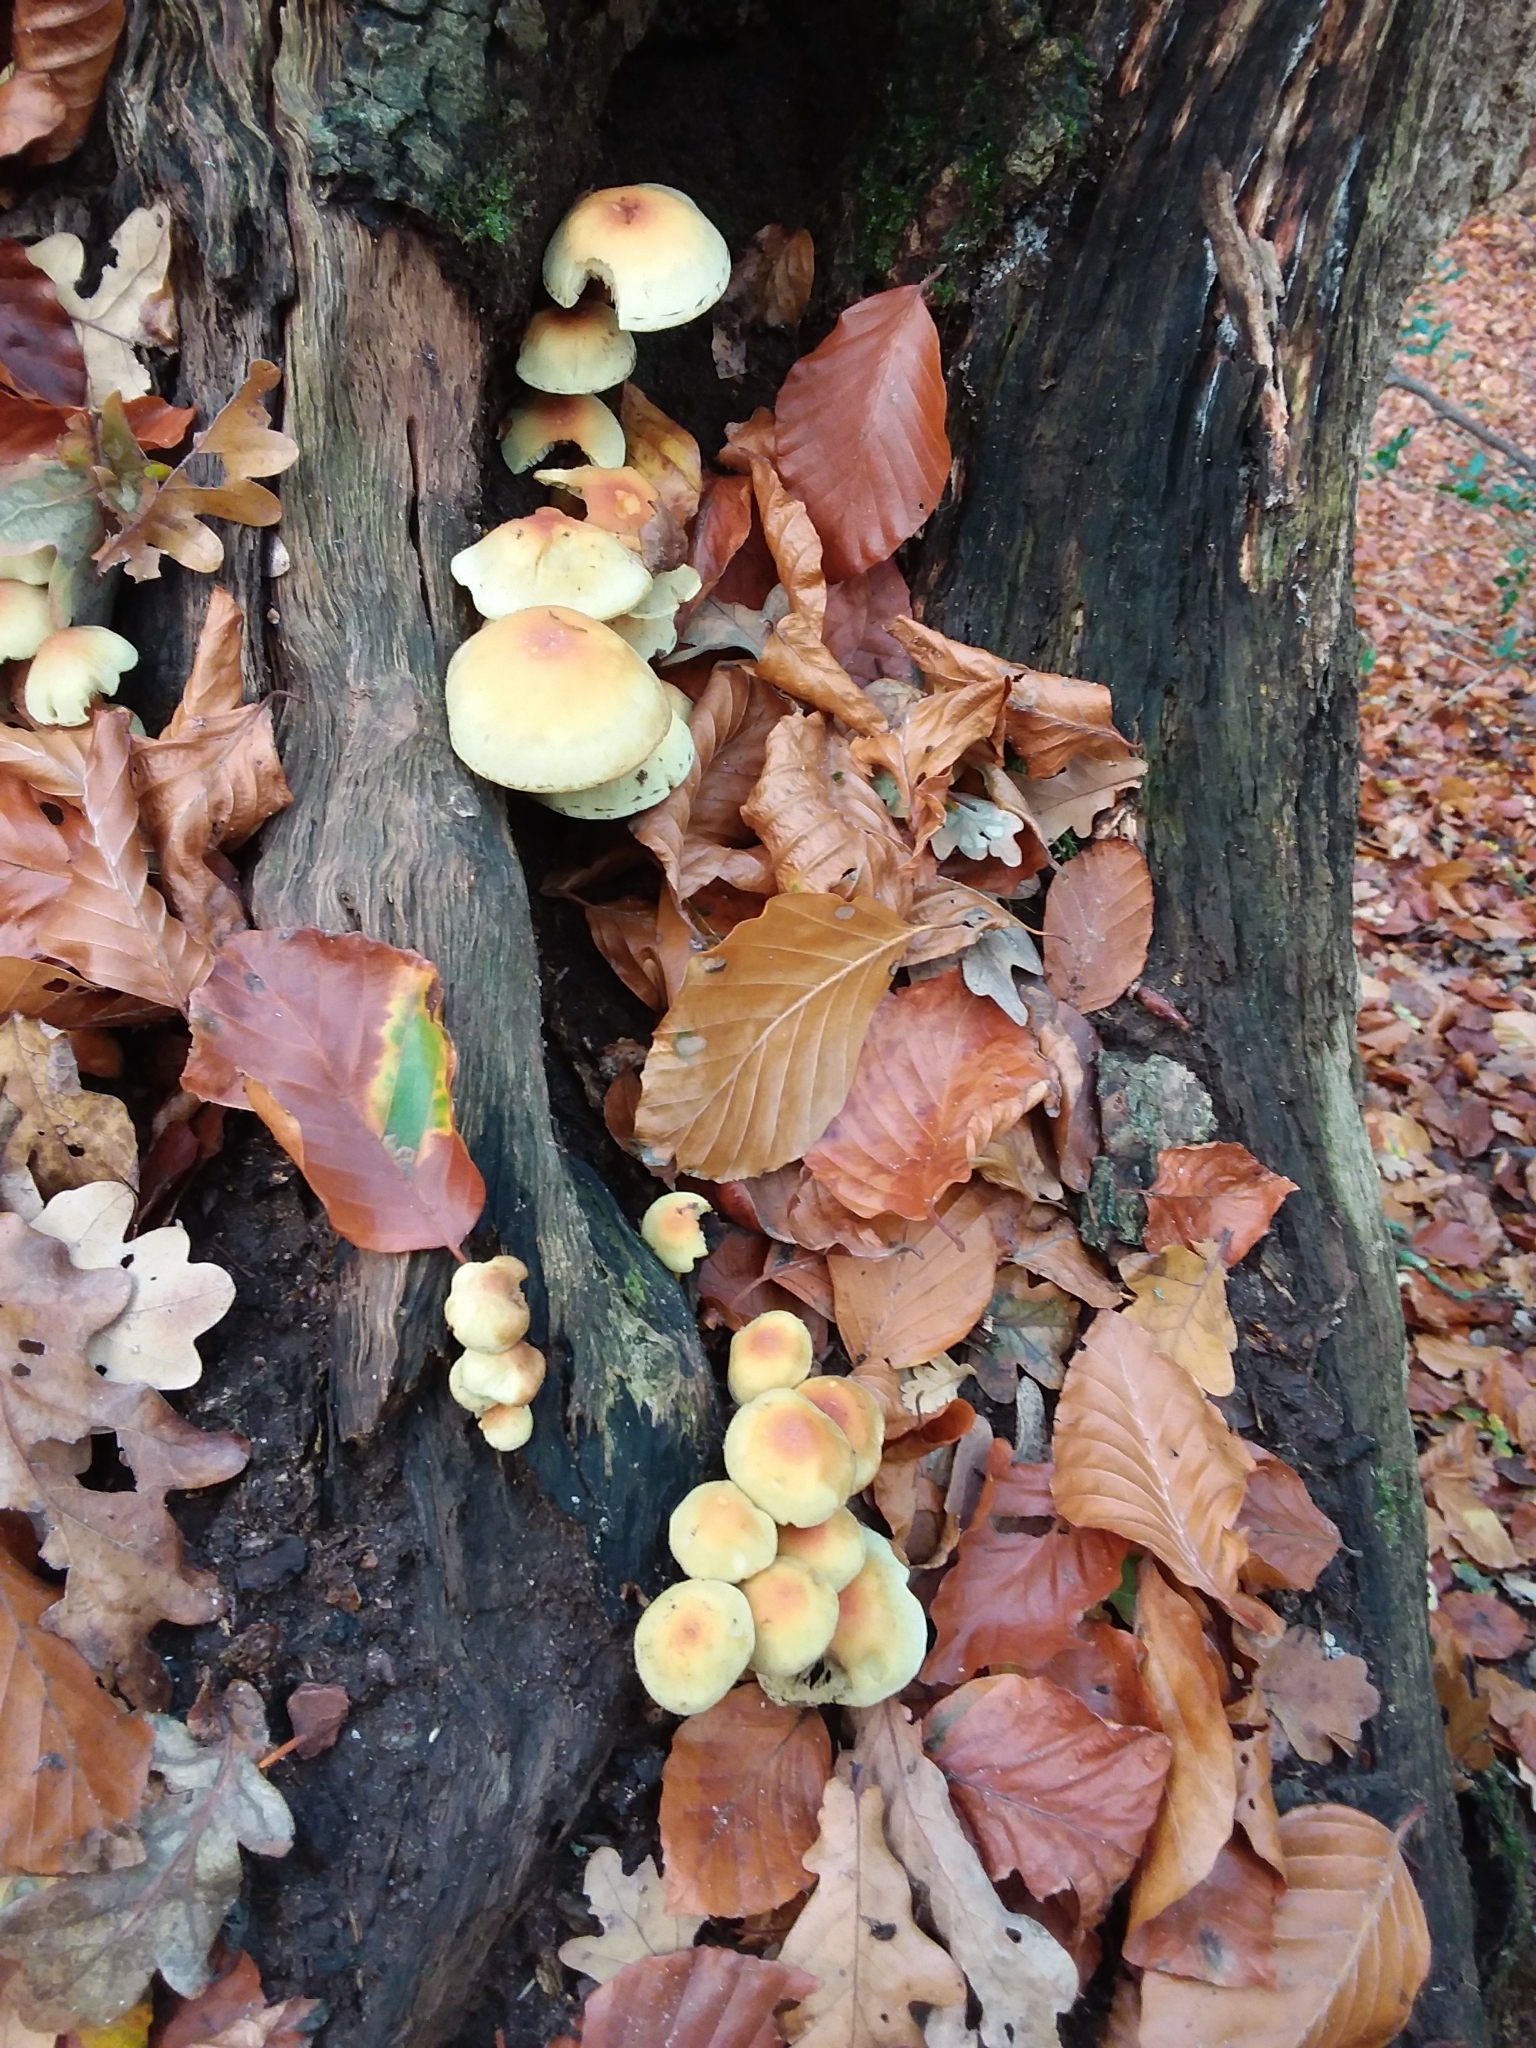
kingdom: Fungi
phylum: Basidiomycota
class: Agaricomycetes
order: Agaricales
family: Strophariaceae
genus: Hypholoma
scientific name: Hypholoma fasciculare
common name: Sulphur tuft
